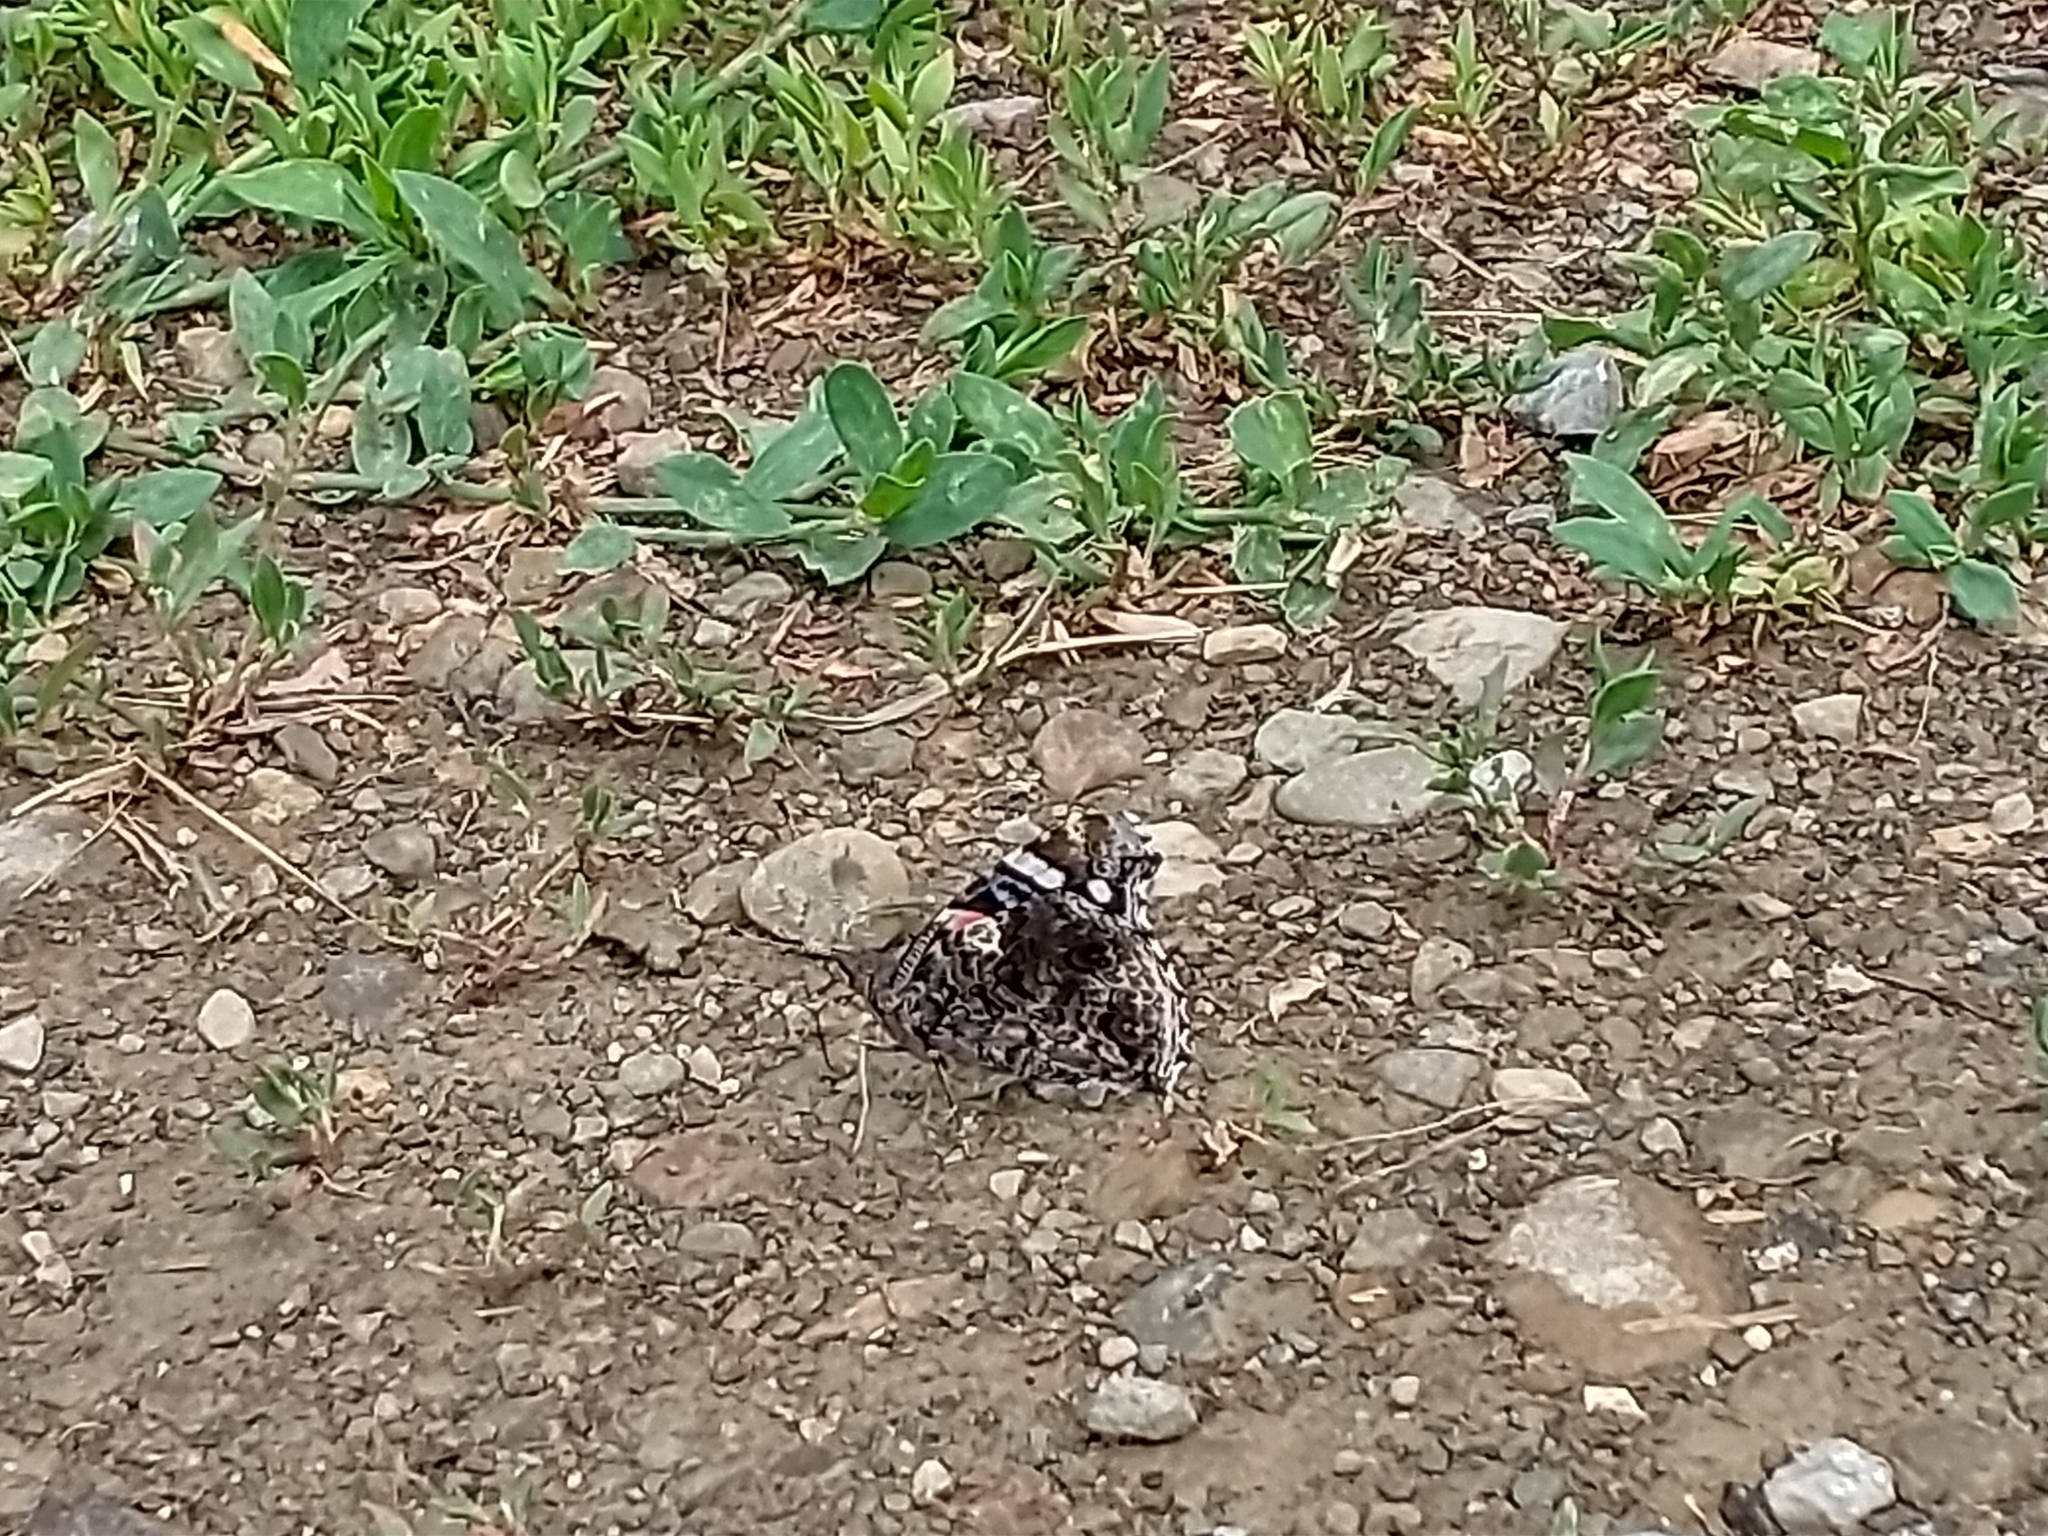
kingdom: Animalia
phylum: Arthropoda
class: Insecta
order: Lepidoptera
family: Nymphalidae
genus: Vanessa
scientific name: Vanessa atalanta
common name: Red admiral
